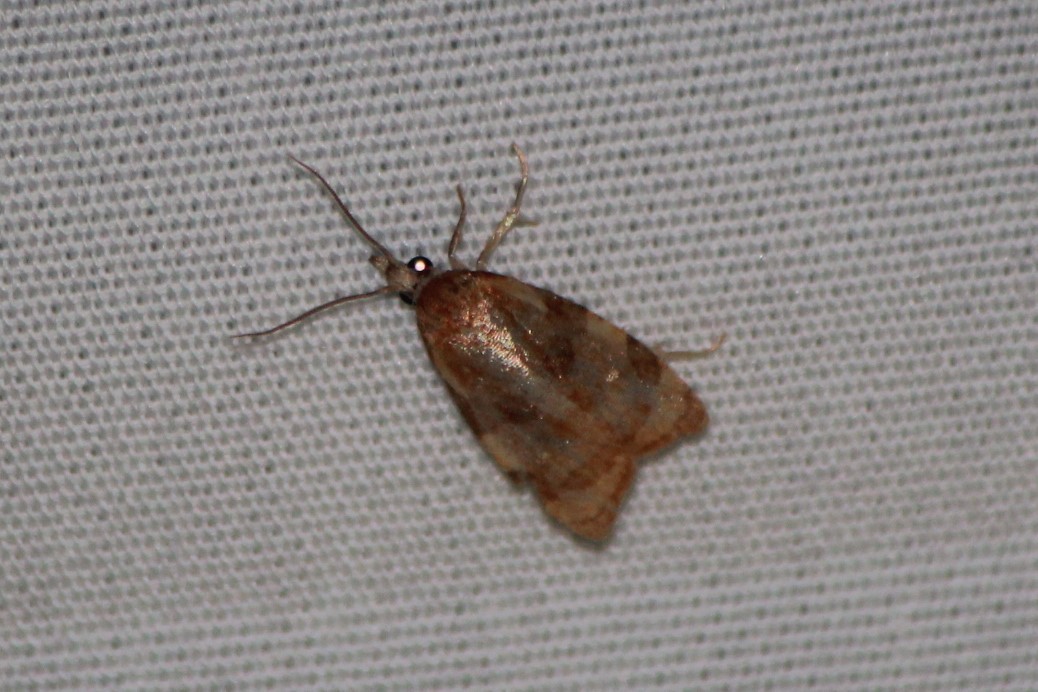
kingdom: Animalia
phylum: Arthropoda
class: Insecta
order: Lepidoptera
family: Tortricidae
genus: Cenopis
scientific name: Cenopis diluticostana
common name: Spring dead-leaf roller moth
